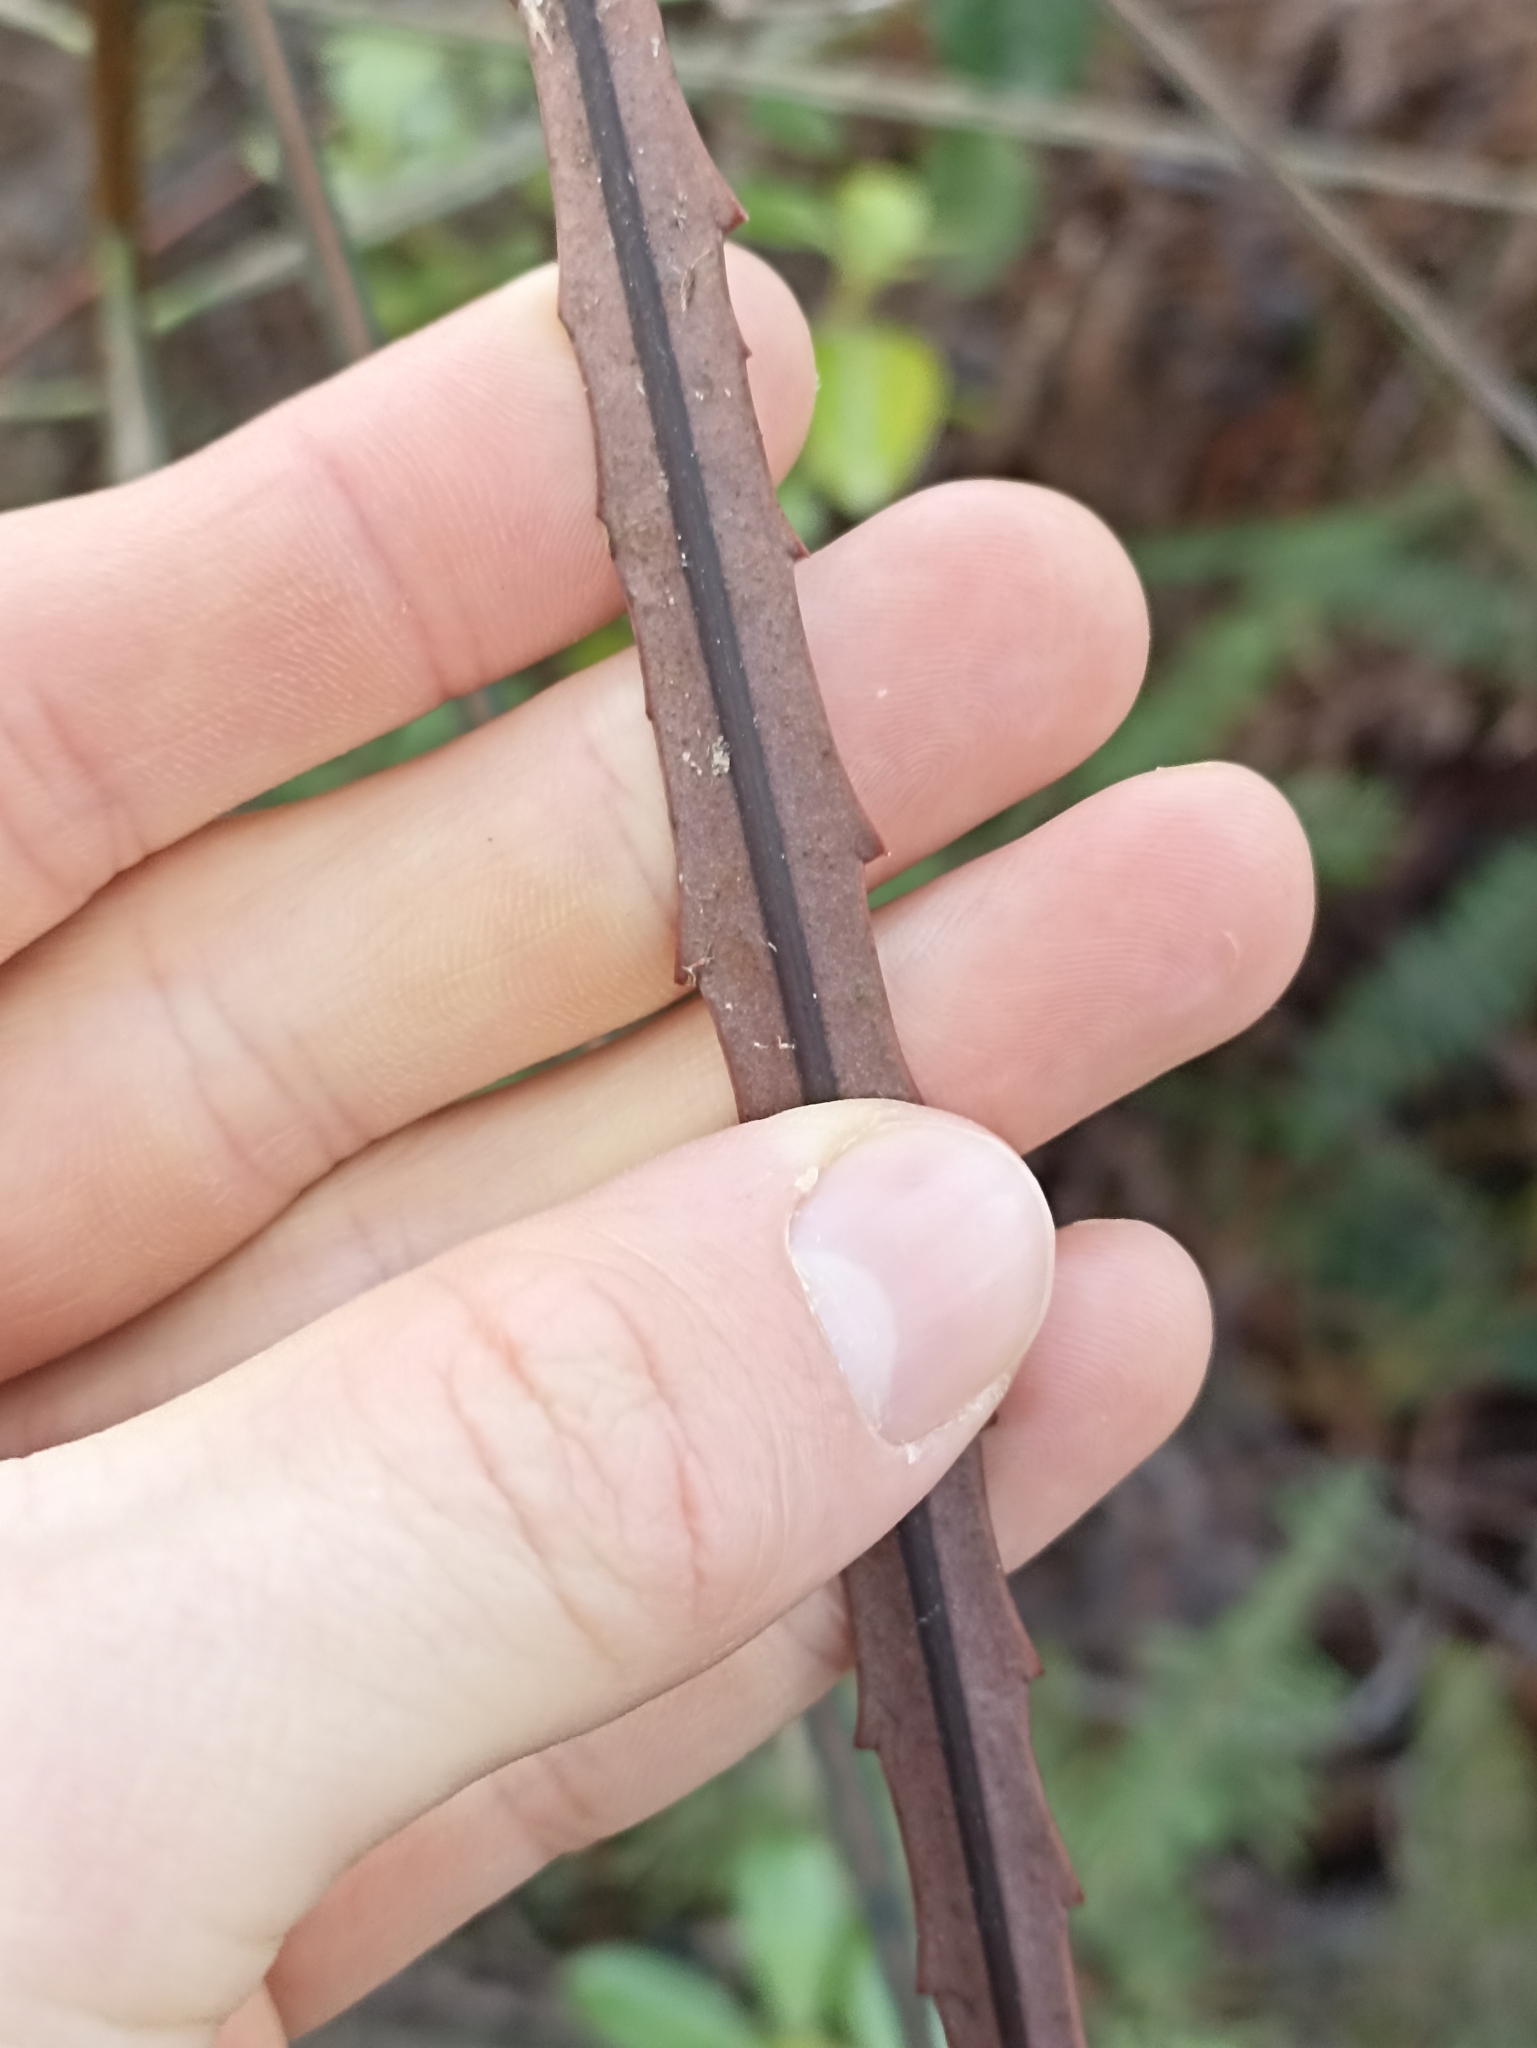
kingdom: Plantae
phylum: Tracheophyta
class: Magnoliopsida
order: Apiales
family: Araliaceae
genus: Pseudopanax
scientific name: Pseudopanax crassifolius
